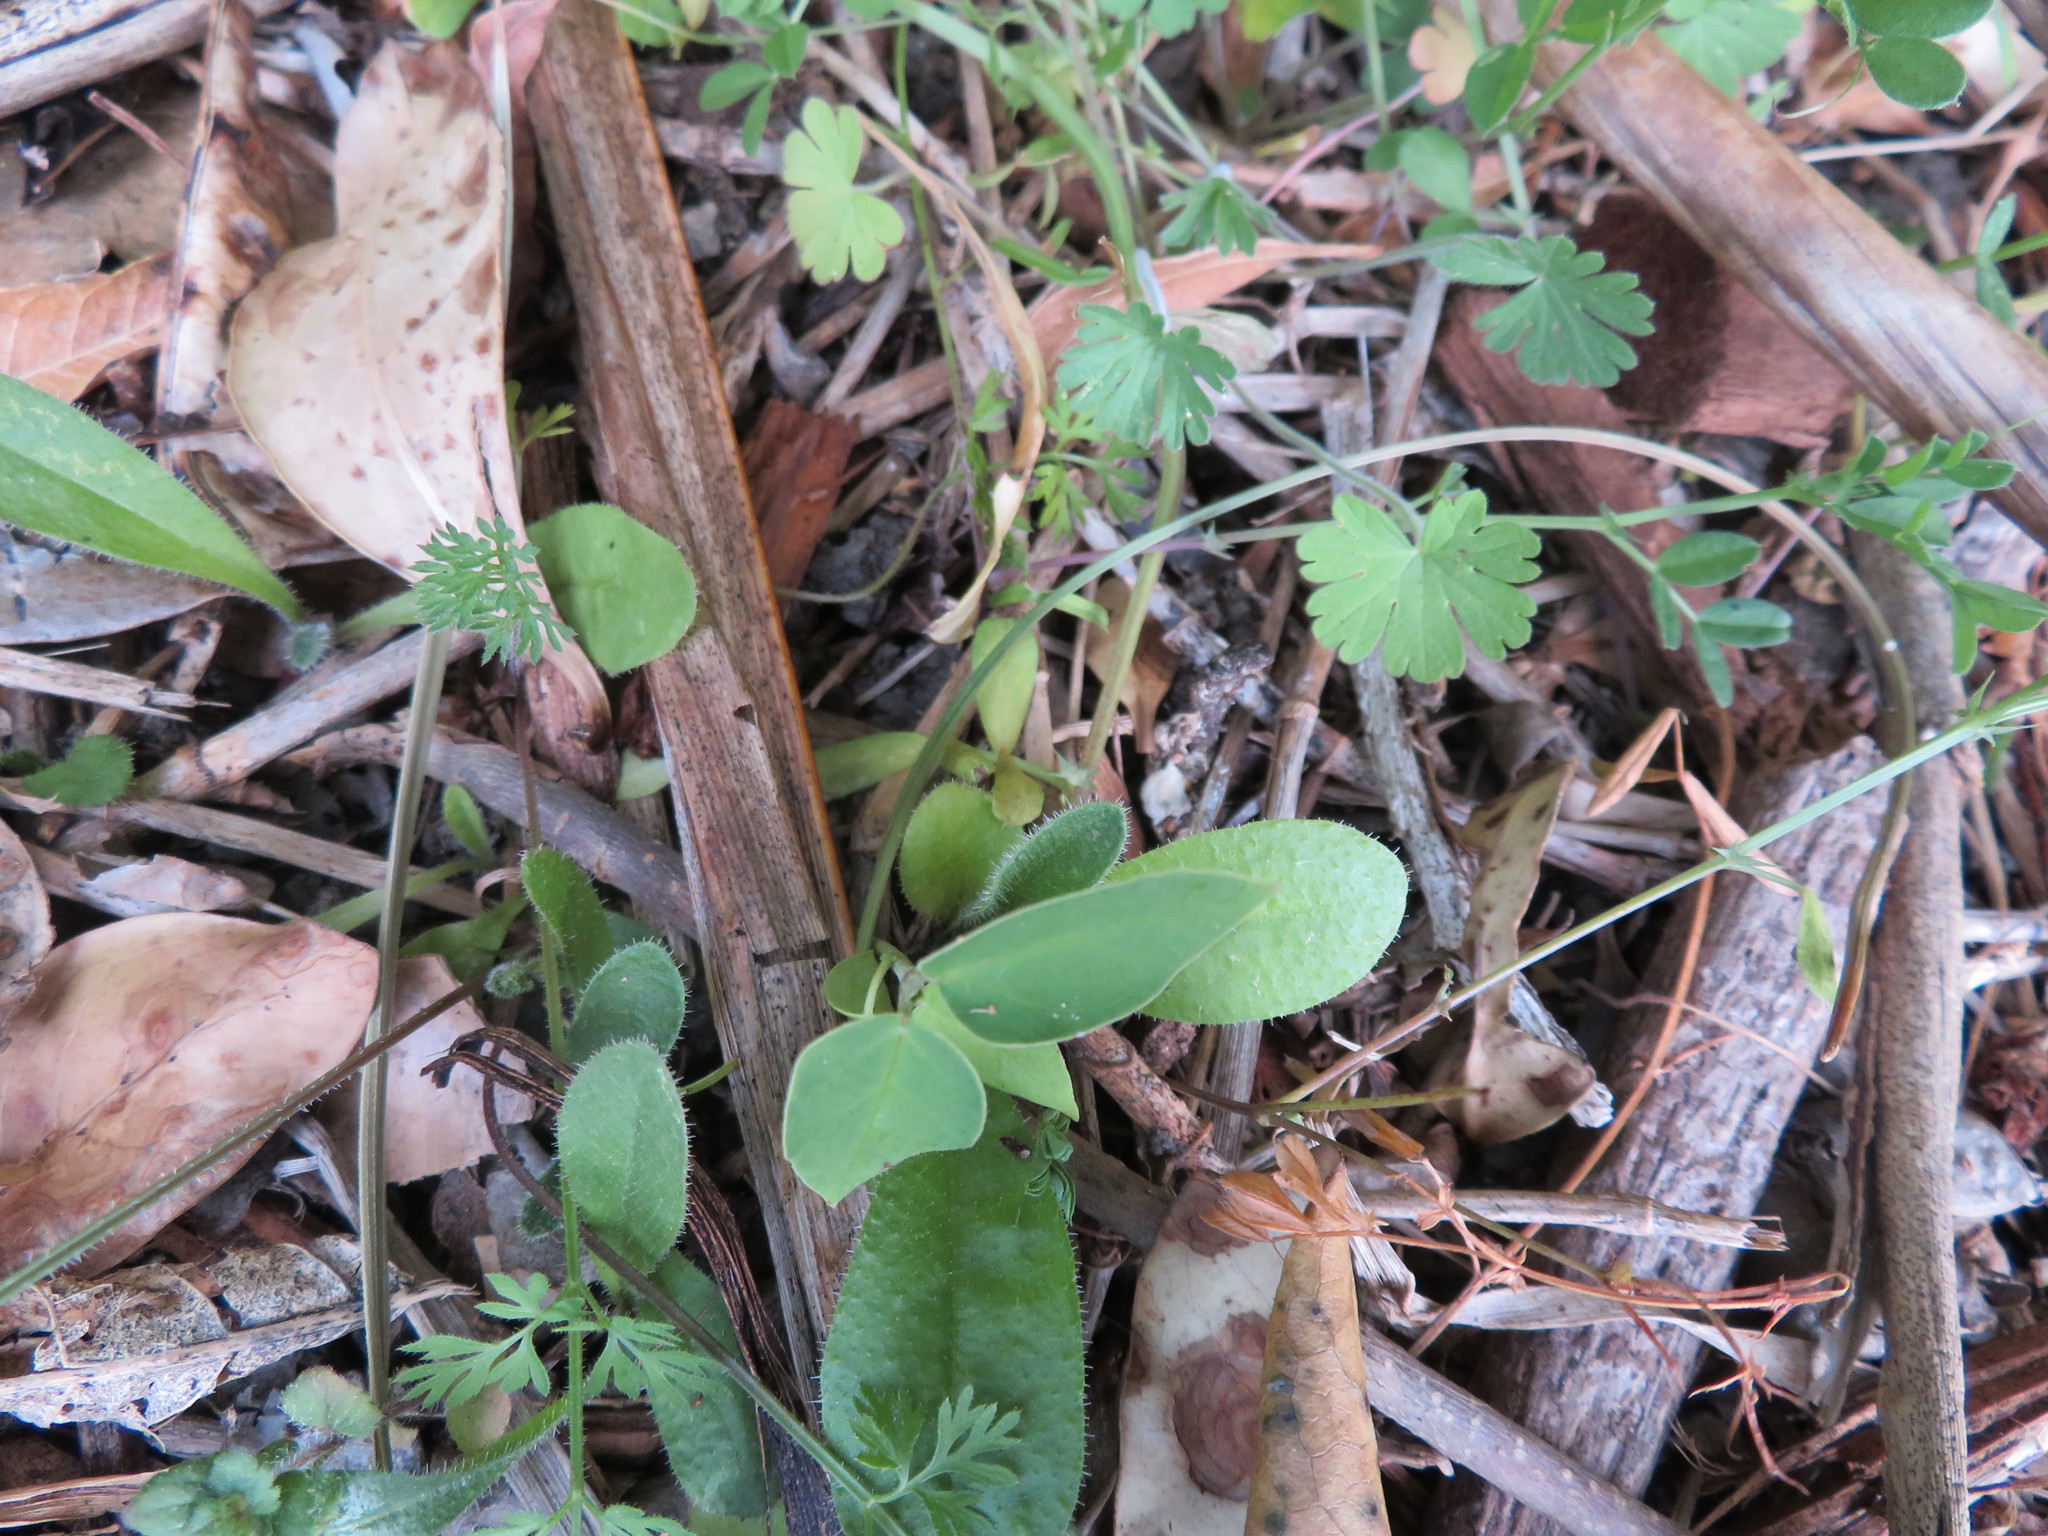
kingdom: Plantae
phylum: Tracheophyta
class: Magnoliopsida
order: Geraniales
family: Geraniaceae
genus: Geranium
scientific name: Geranium molle
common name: Dove's-foot crane's-bill
